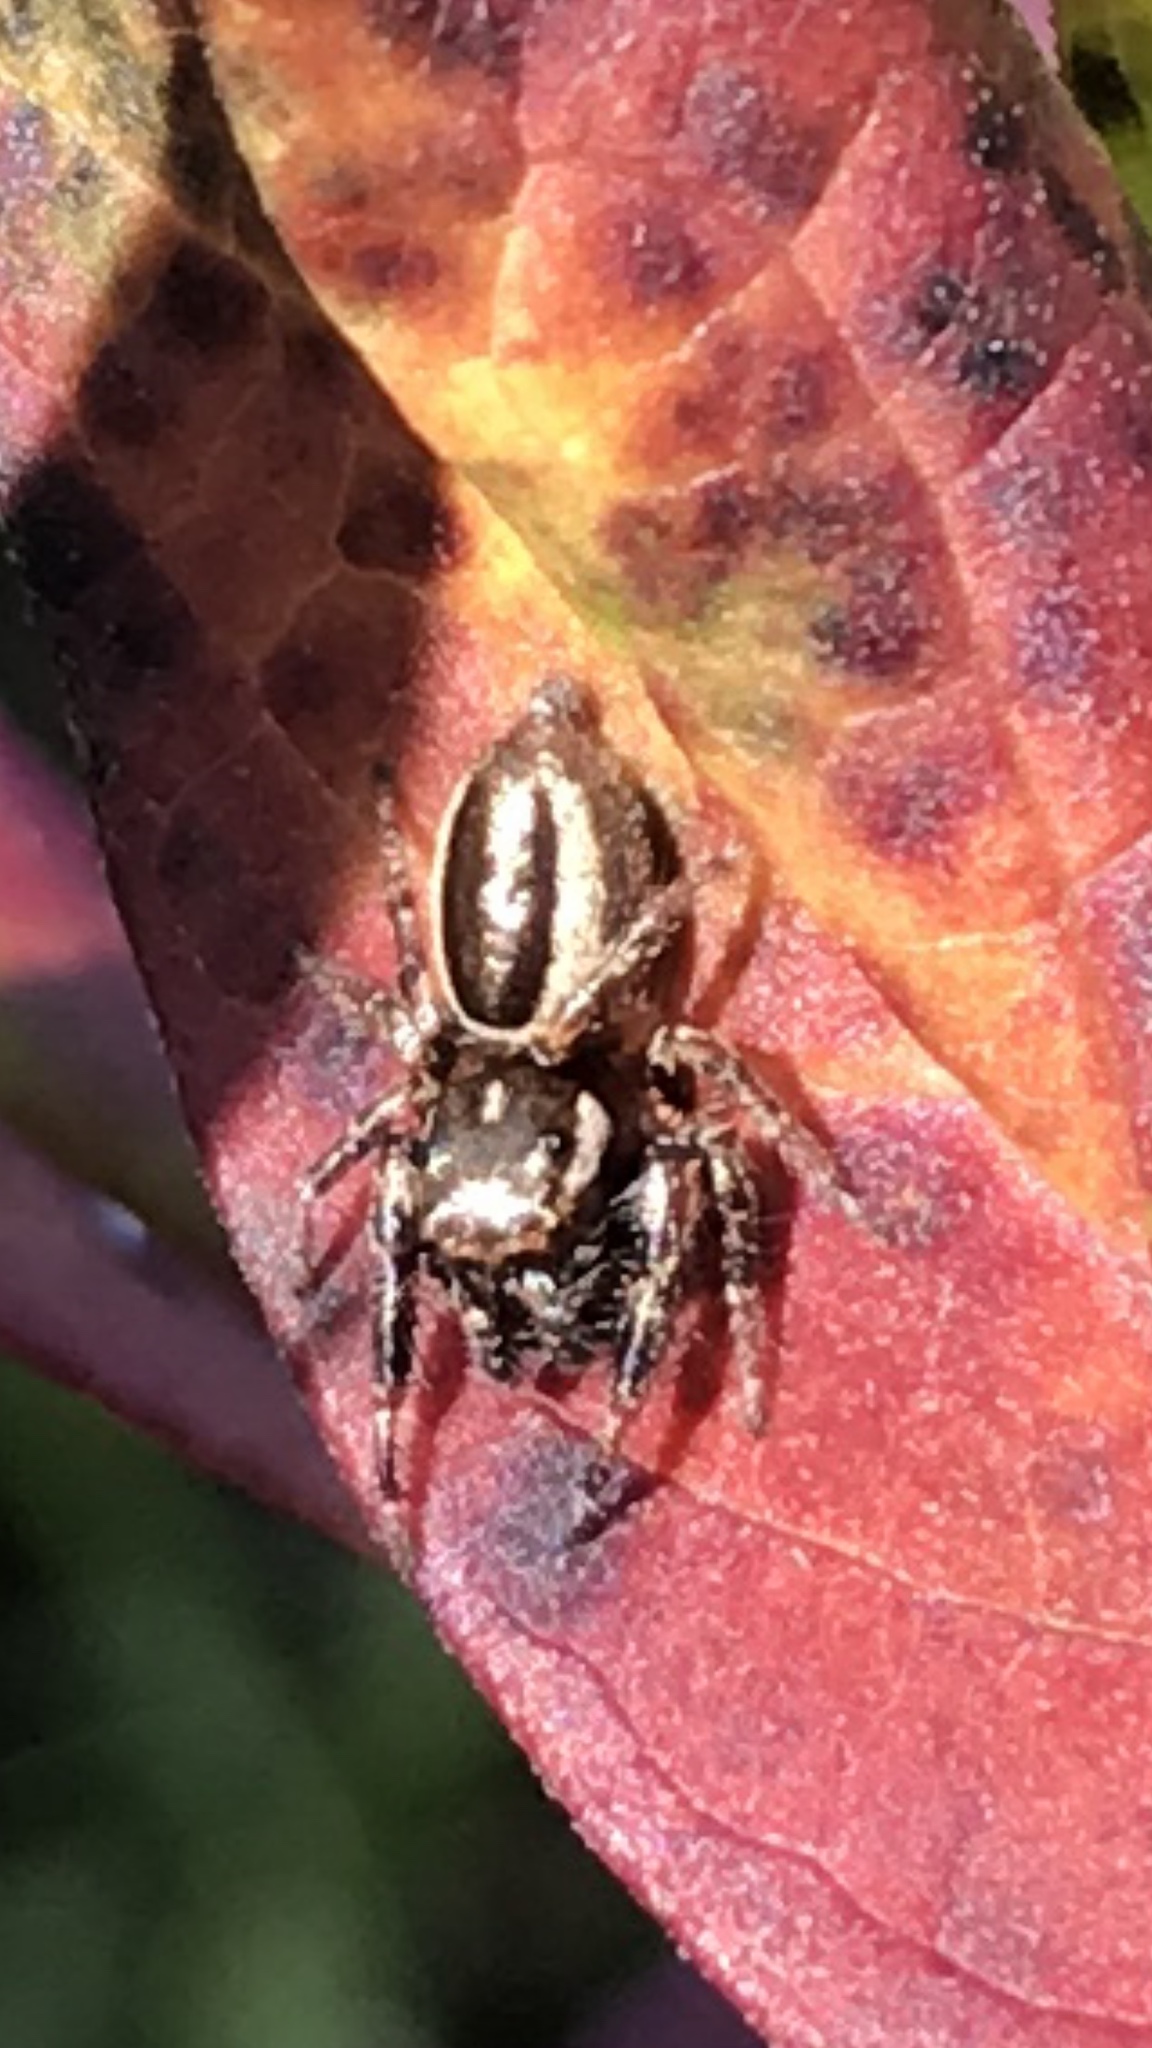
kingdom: Animalia
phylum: Arthropoda
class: Arachnida
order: Araneae
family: Salticidae
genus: Eris
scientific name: Eris militaris
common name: Bronze jumper
